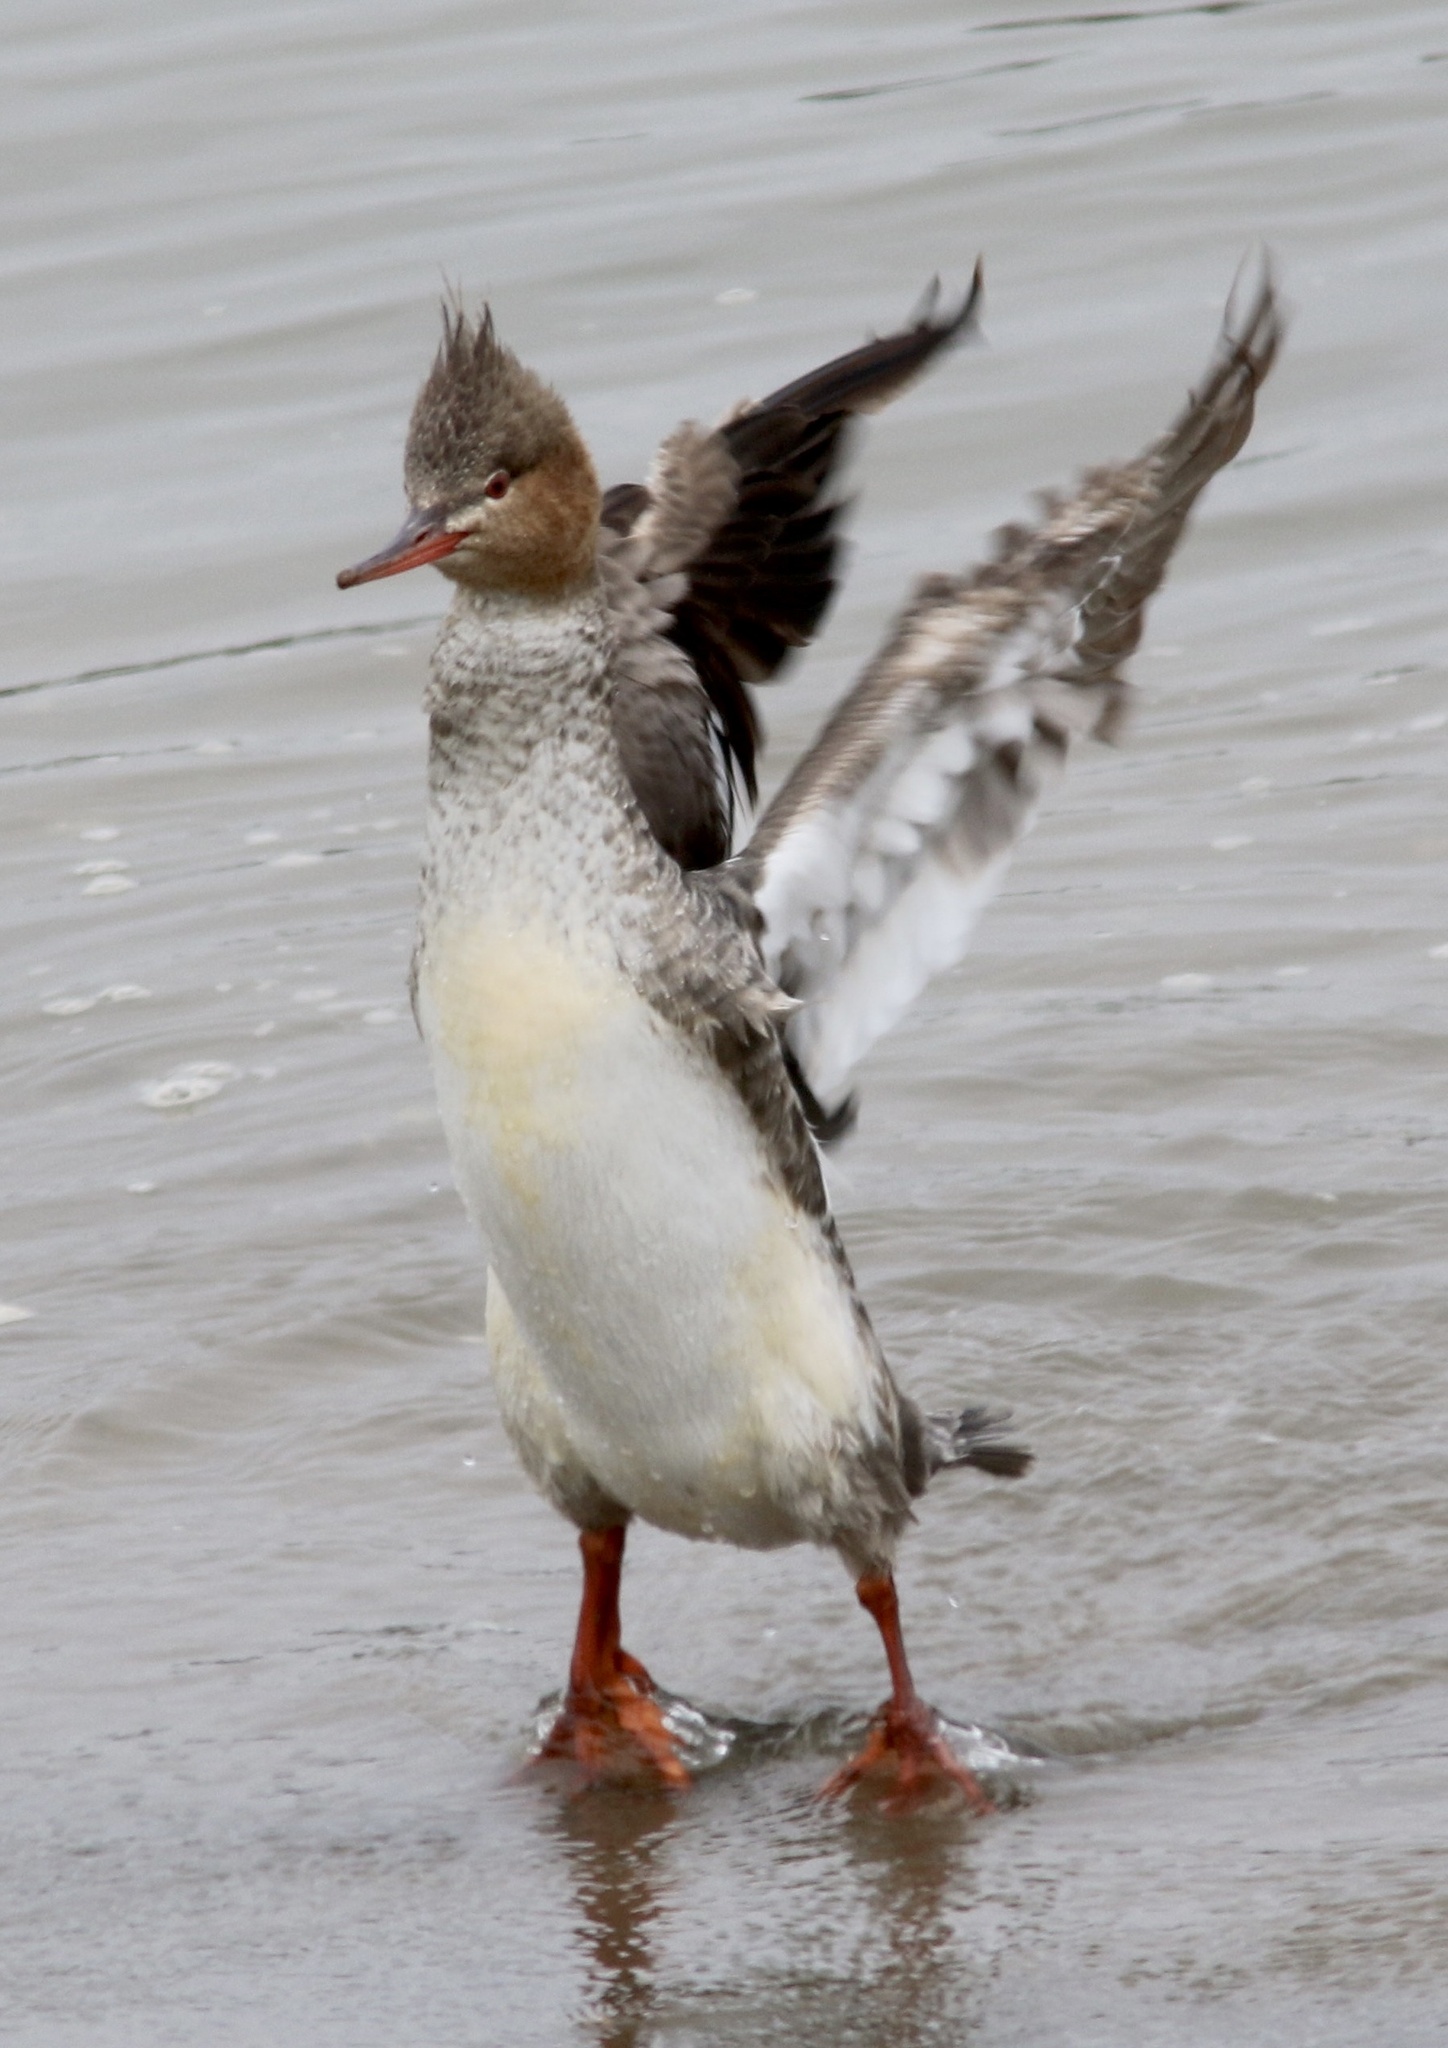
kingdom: Animalia
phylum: Chordata
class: Aves
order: Anseriformes
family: Anatidae
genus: Mergus
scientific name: Mergus serrator
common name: Red-breasted merganser
